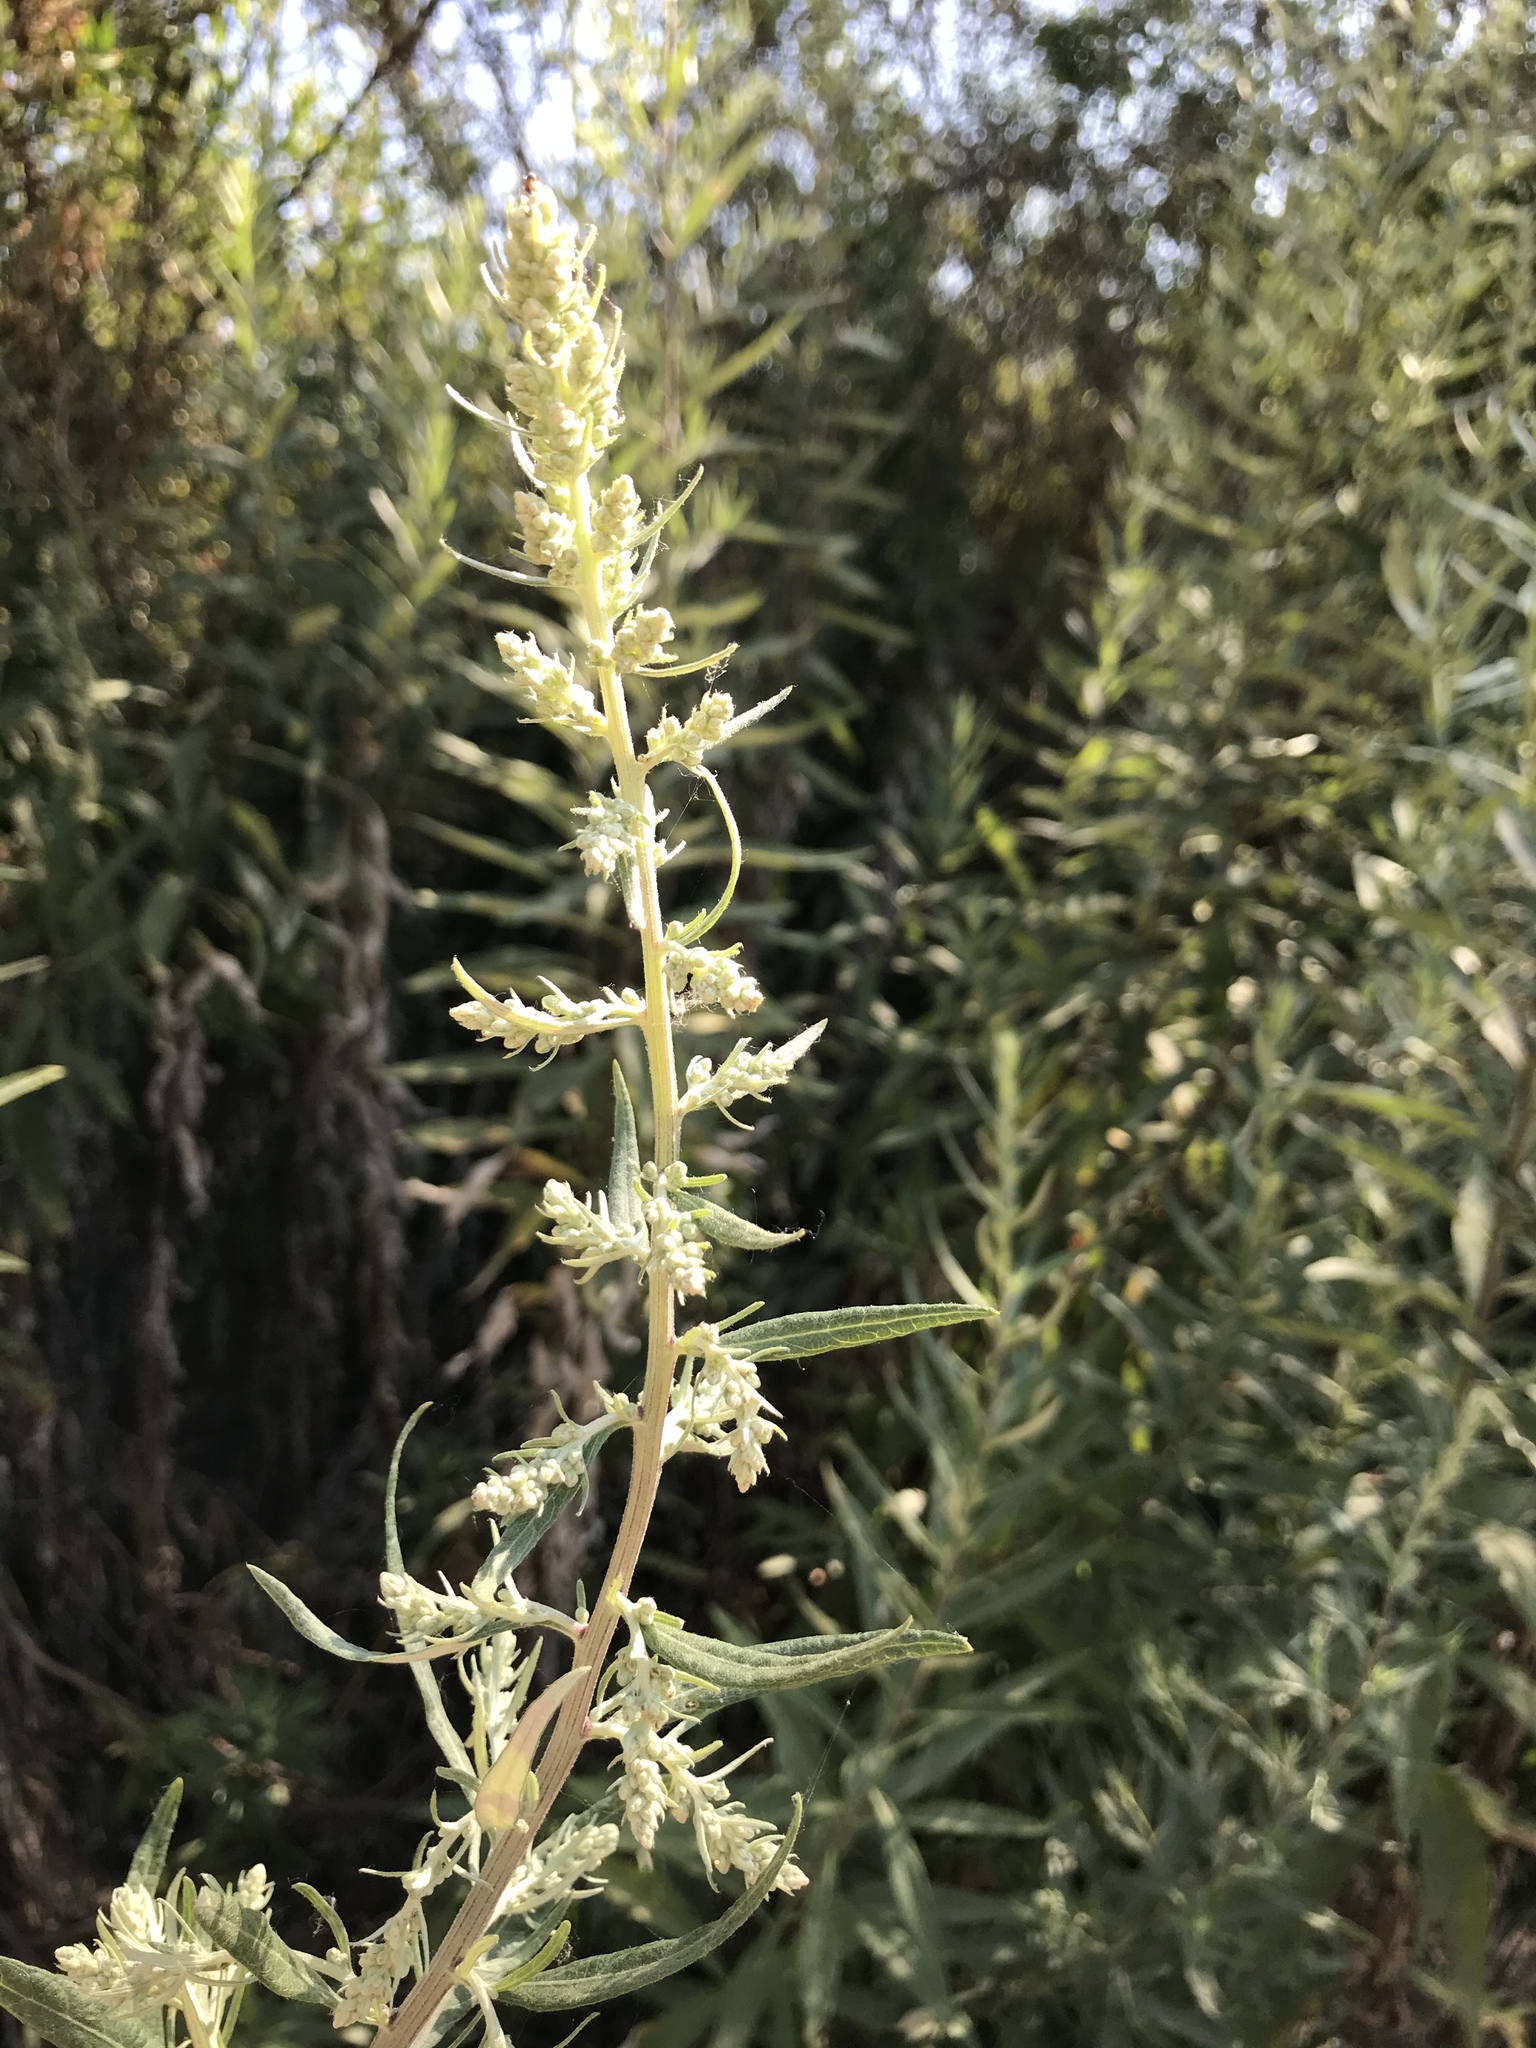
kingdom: Plantae
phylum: Tracheophyta
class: Magnoliopsida
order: Asterales
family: Asteraceae
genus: Artemisia
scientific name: Artemisia douglasiana
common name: Northwest mugwort
